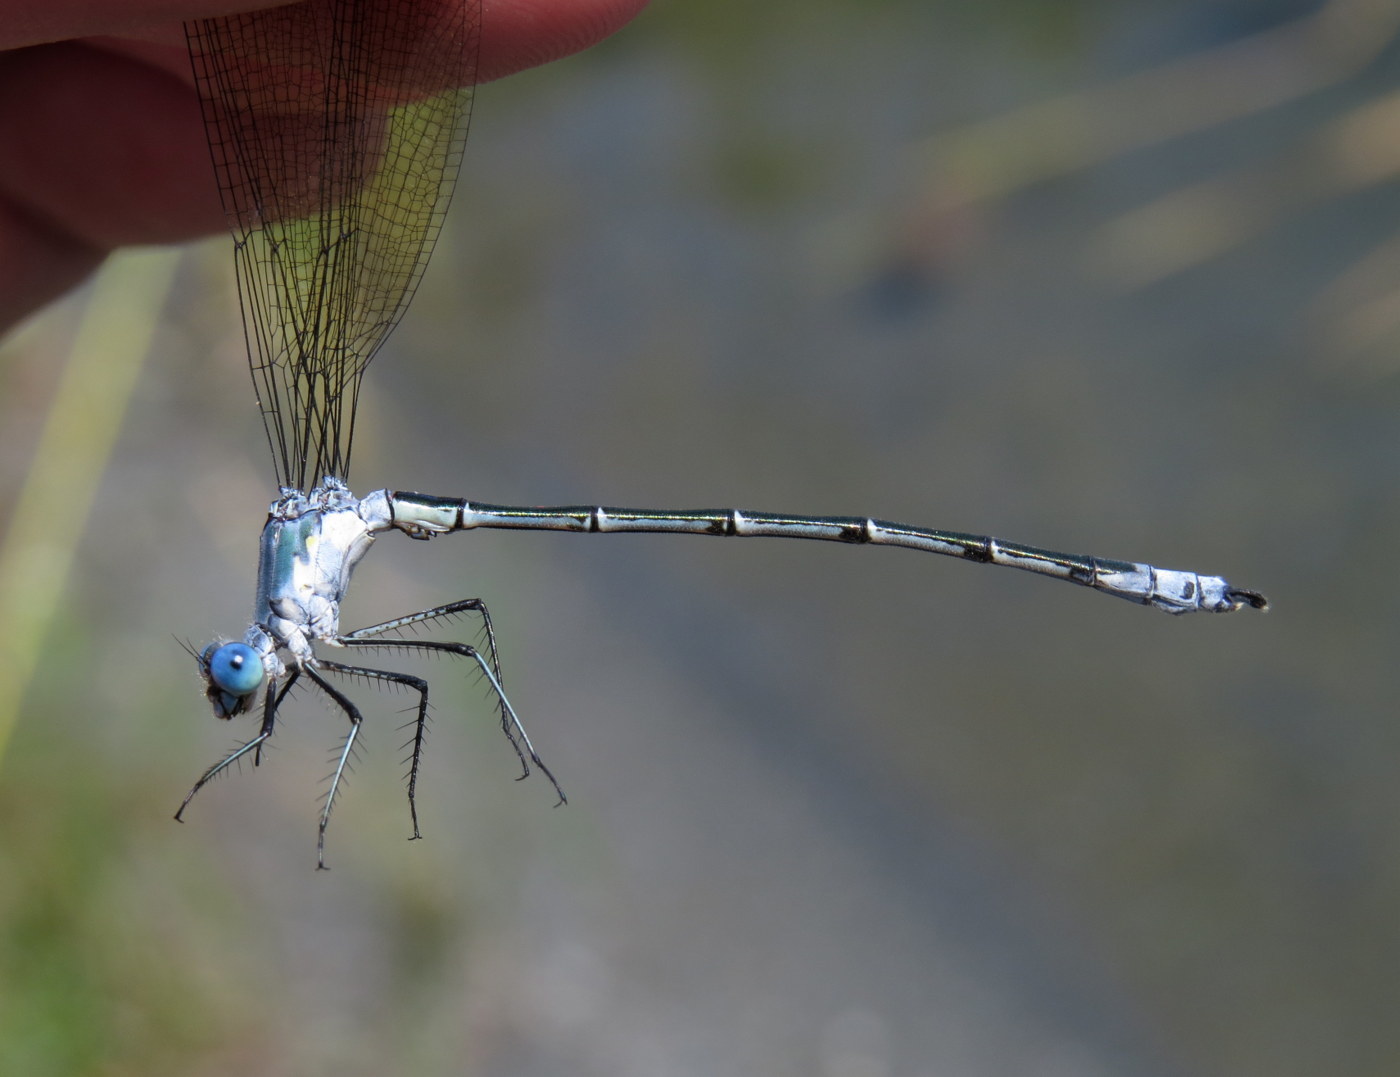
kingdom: Animalia
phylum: Arthropoda
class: Insecta
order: Odonata
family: Lestidae
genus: Lestes
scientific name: Lestes eurinus
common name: Amber-winged spreadwing
